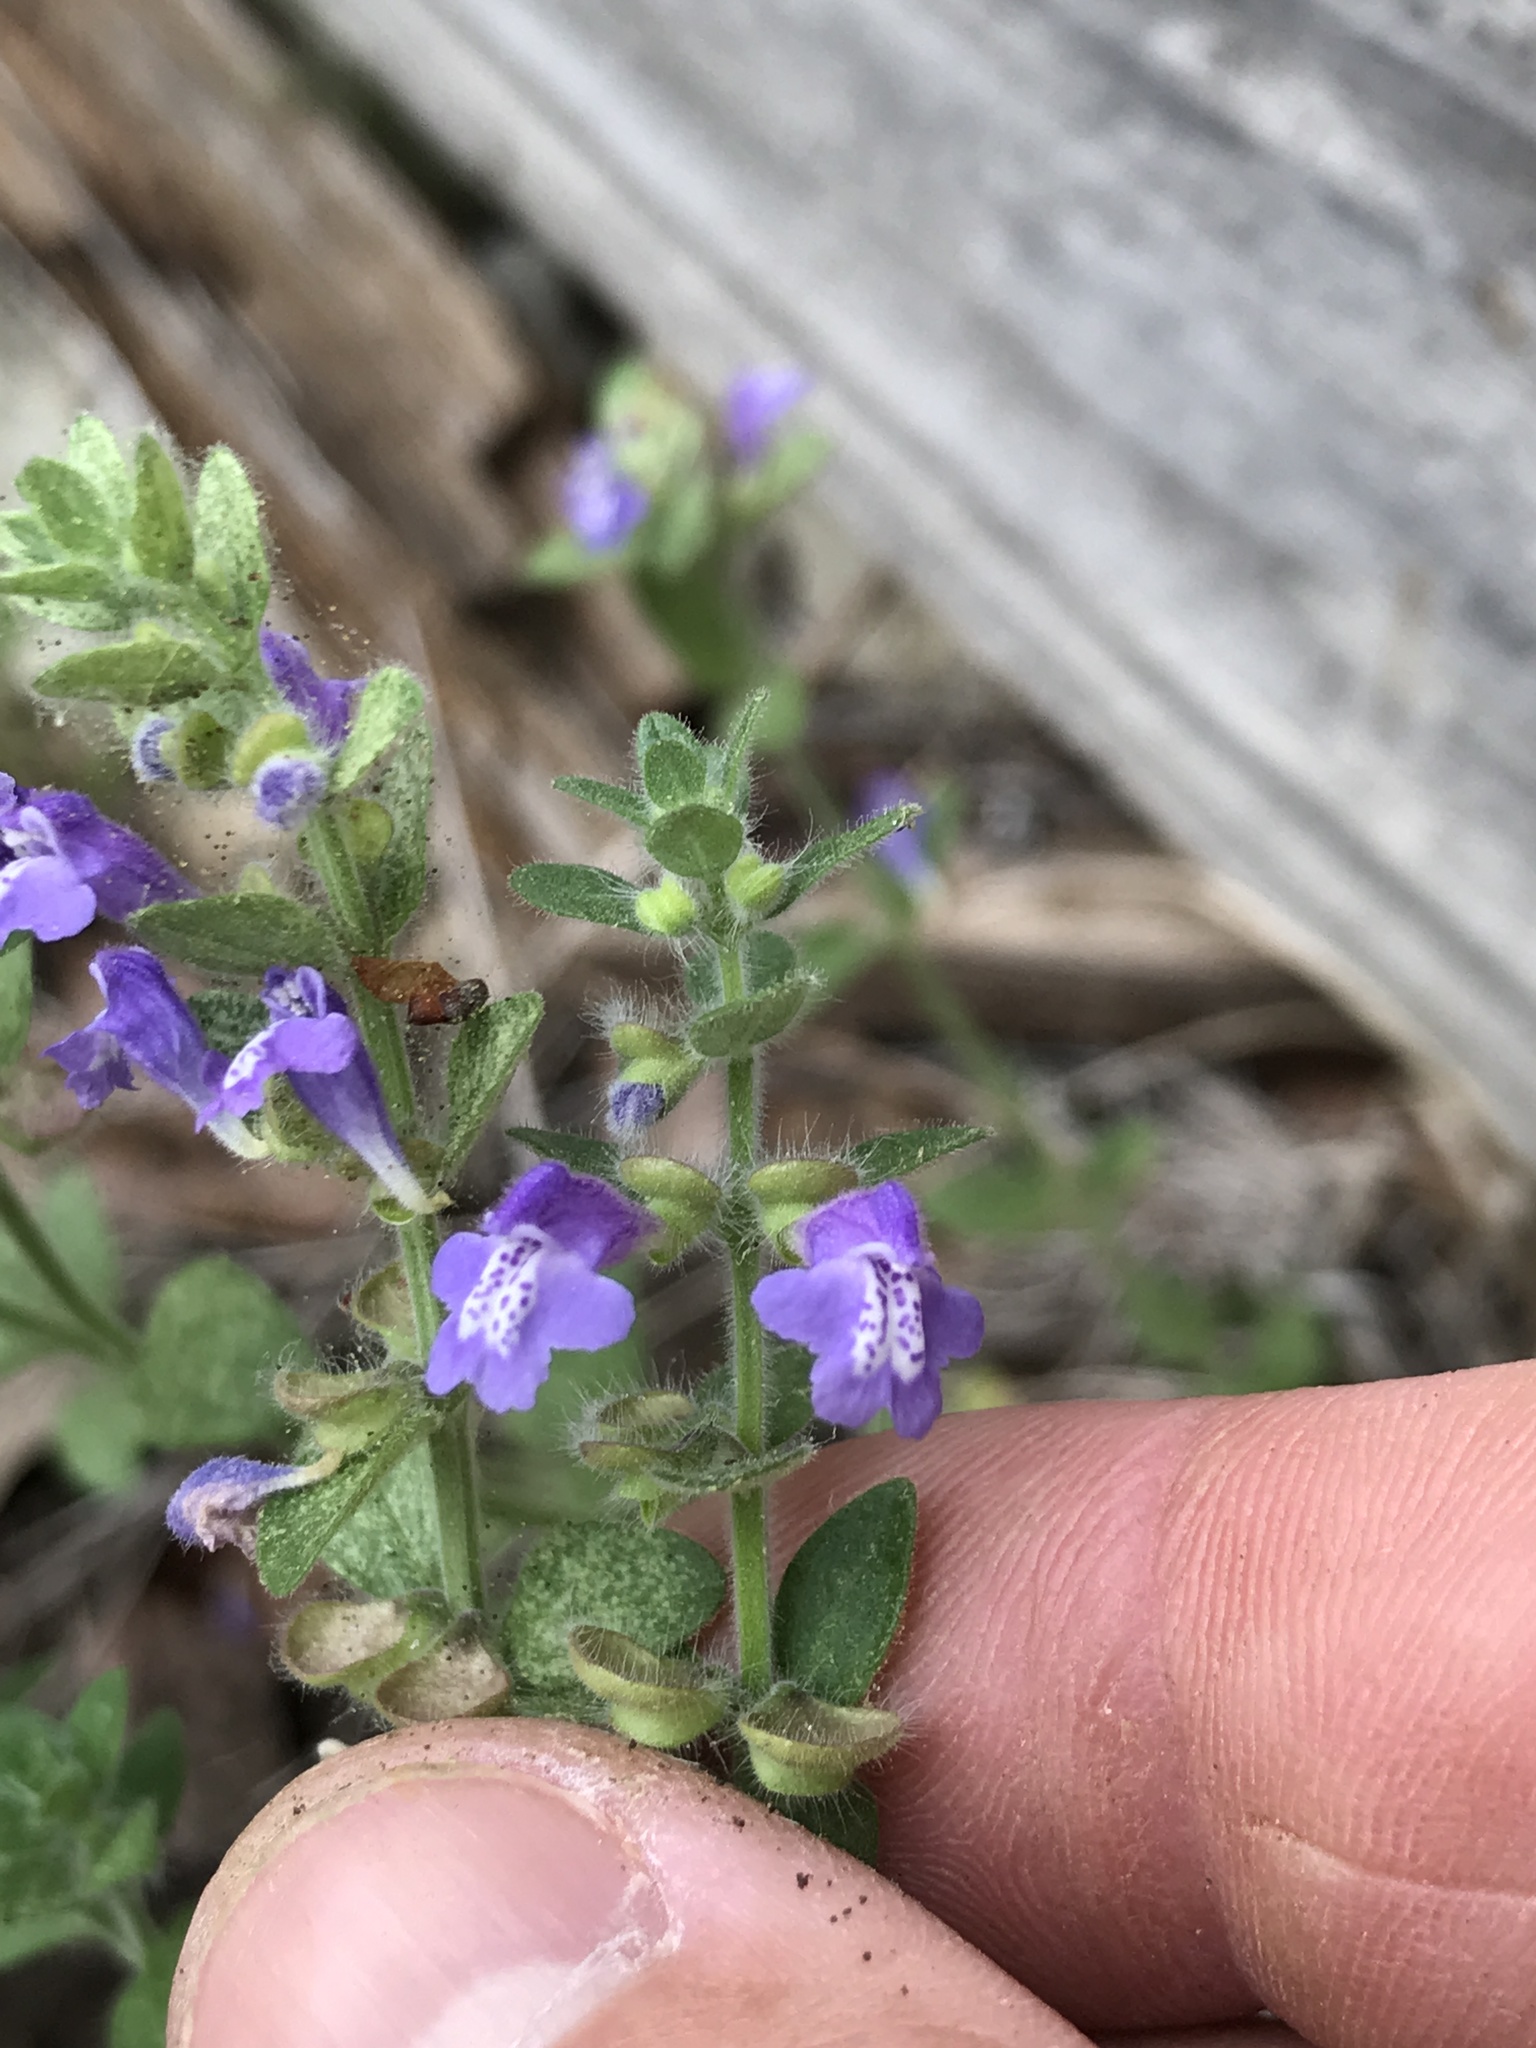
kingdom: Plantae
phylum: Tracheophyta
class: Magnoliopsida
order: Lamiales
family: Lamiaceae
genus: Scutellaria
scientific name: Scutellaria drummondii
